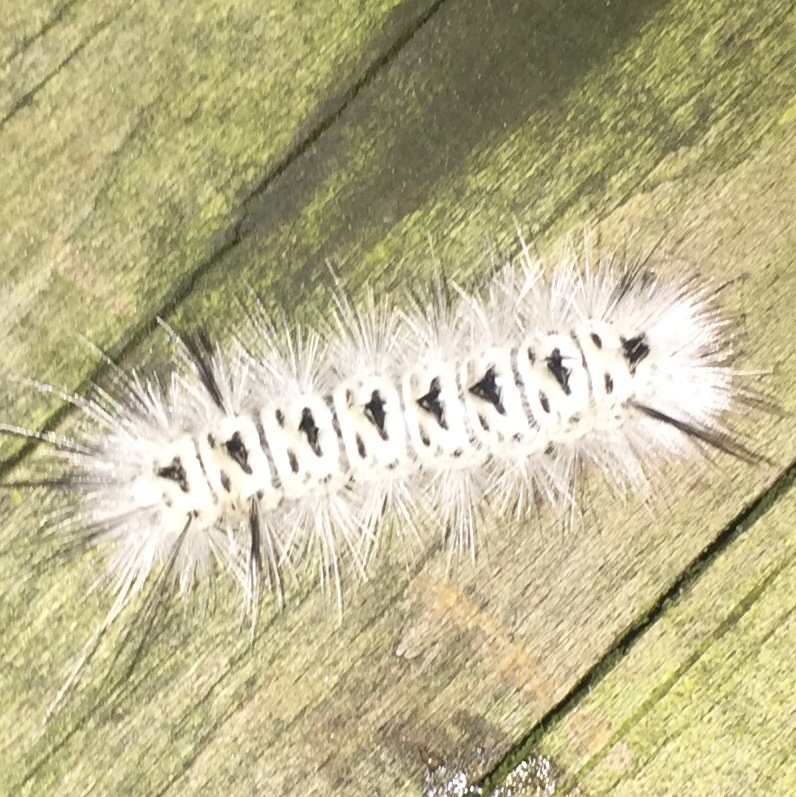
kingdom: Animalia
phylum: Arthropoda
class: Insecta
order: Lepidoptera
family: Erebidae
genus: Lophocampa
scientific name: Lophocampa caryae
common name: Hickory tussock moth
